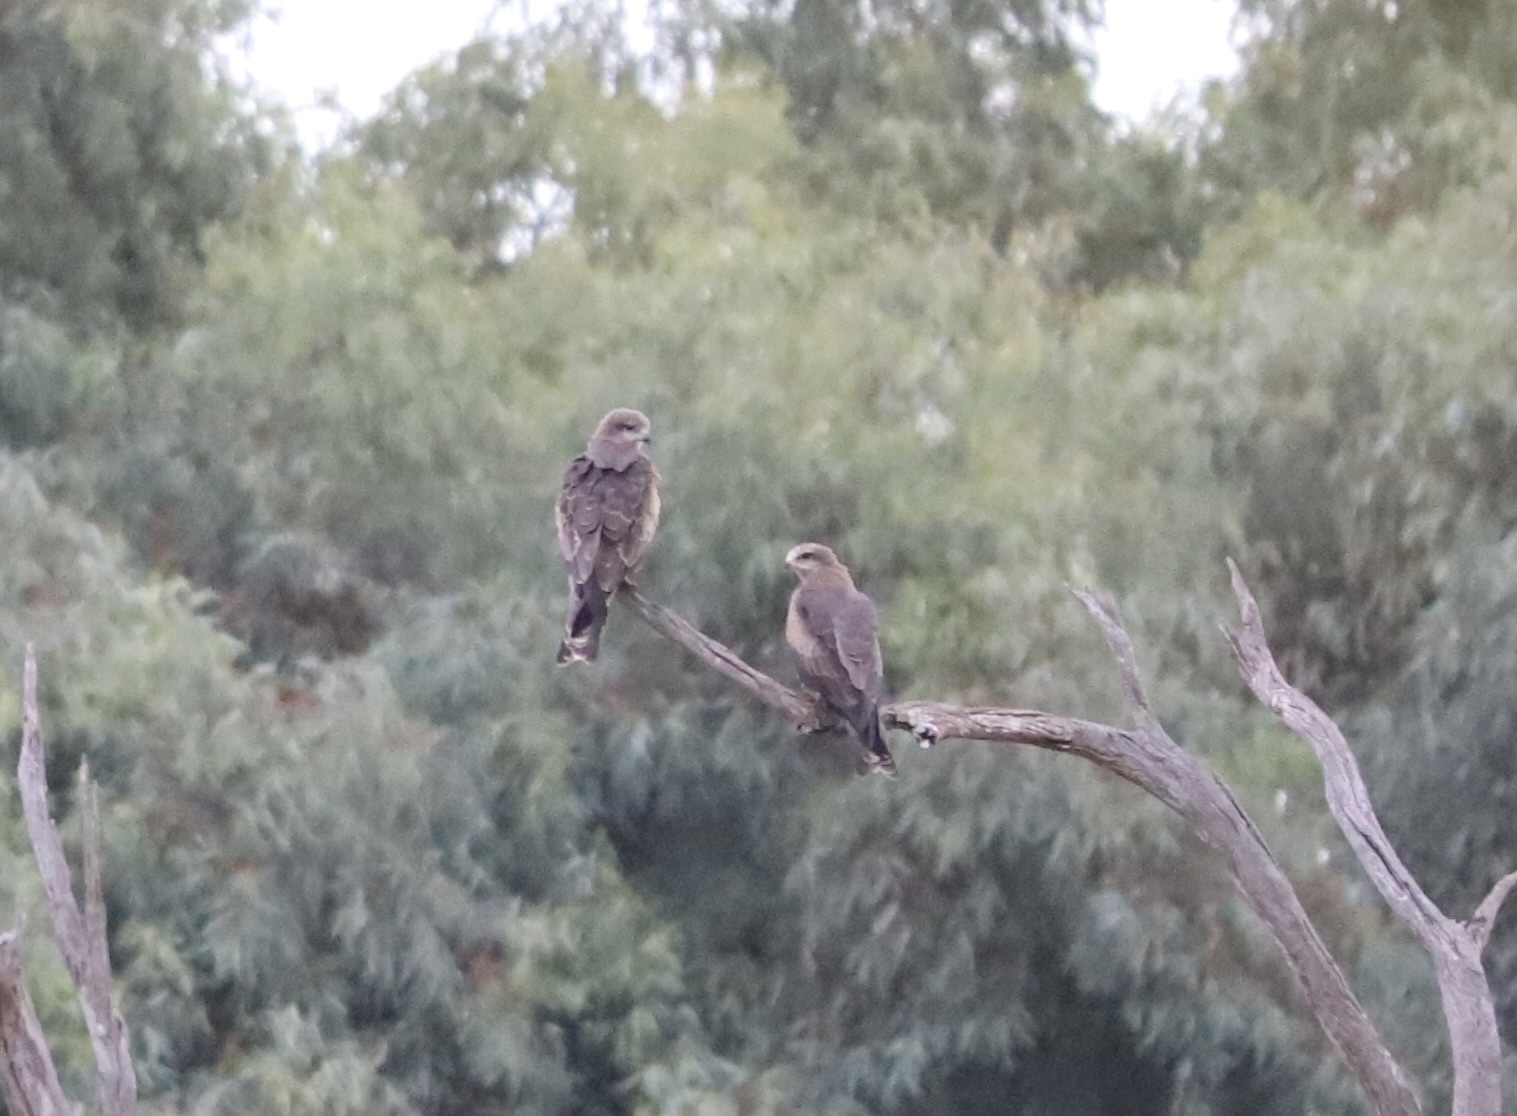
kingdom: Animalia
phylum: Chordata
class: Aves
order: Accipitriformes
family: Accipitridae
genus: Milvus
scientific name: Milvus migrans
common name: Black kite
